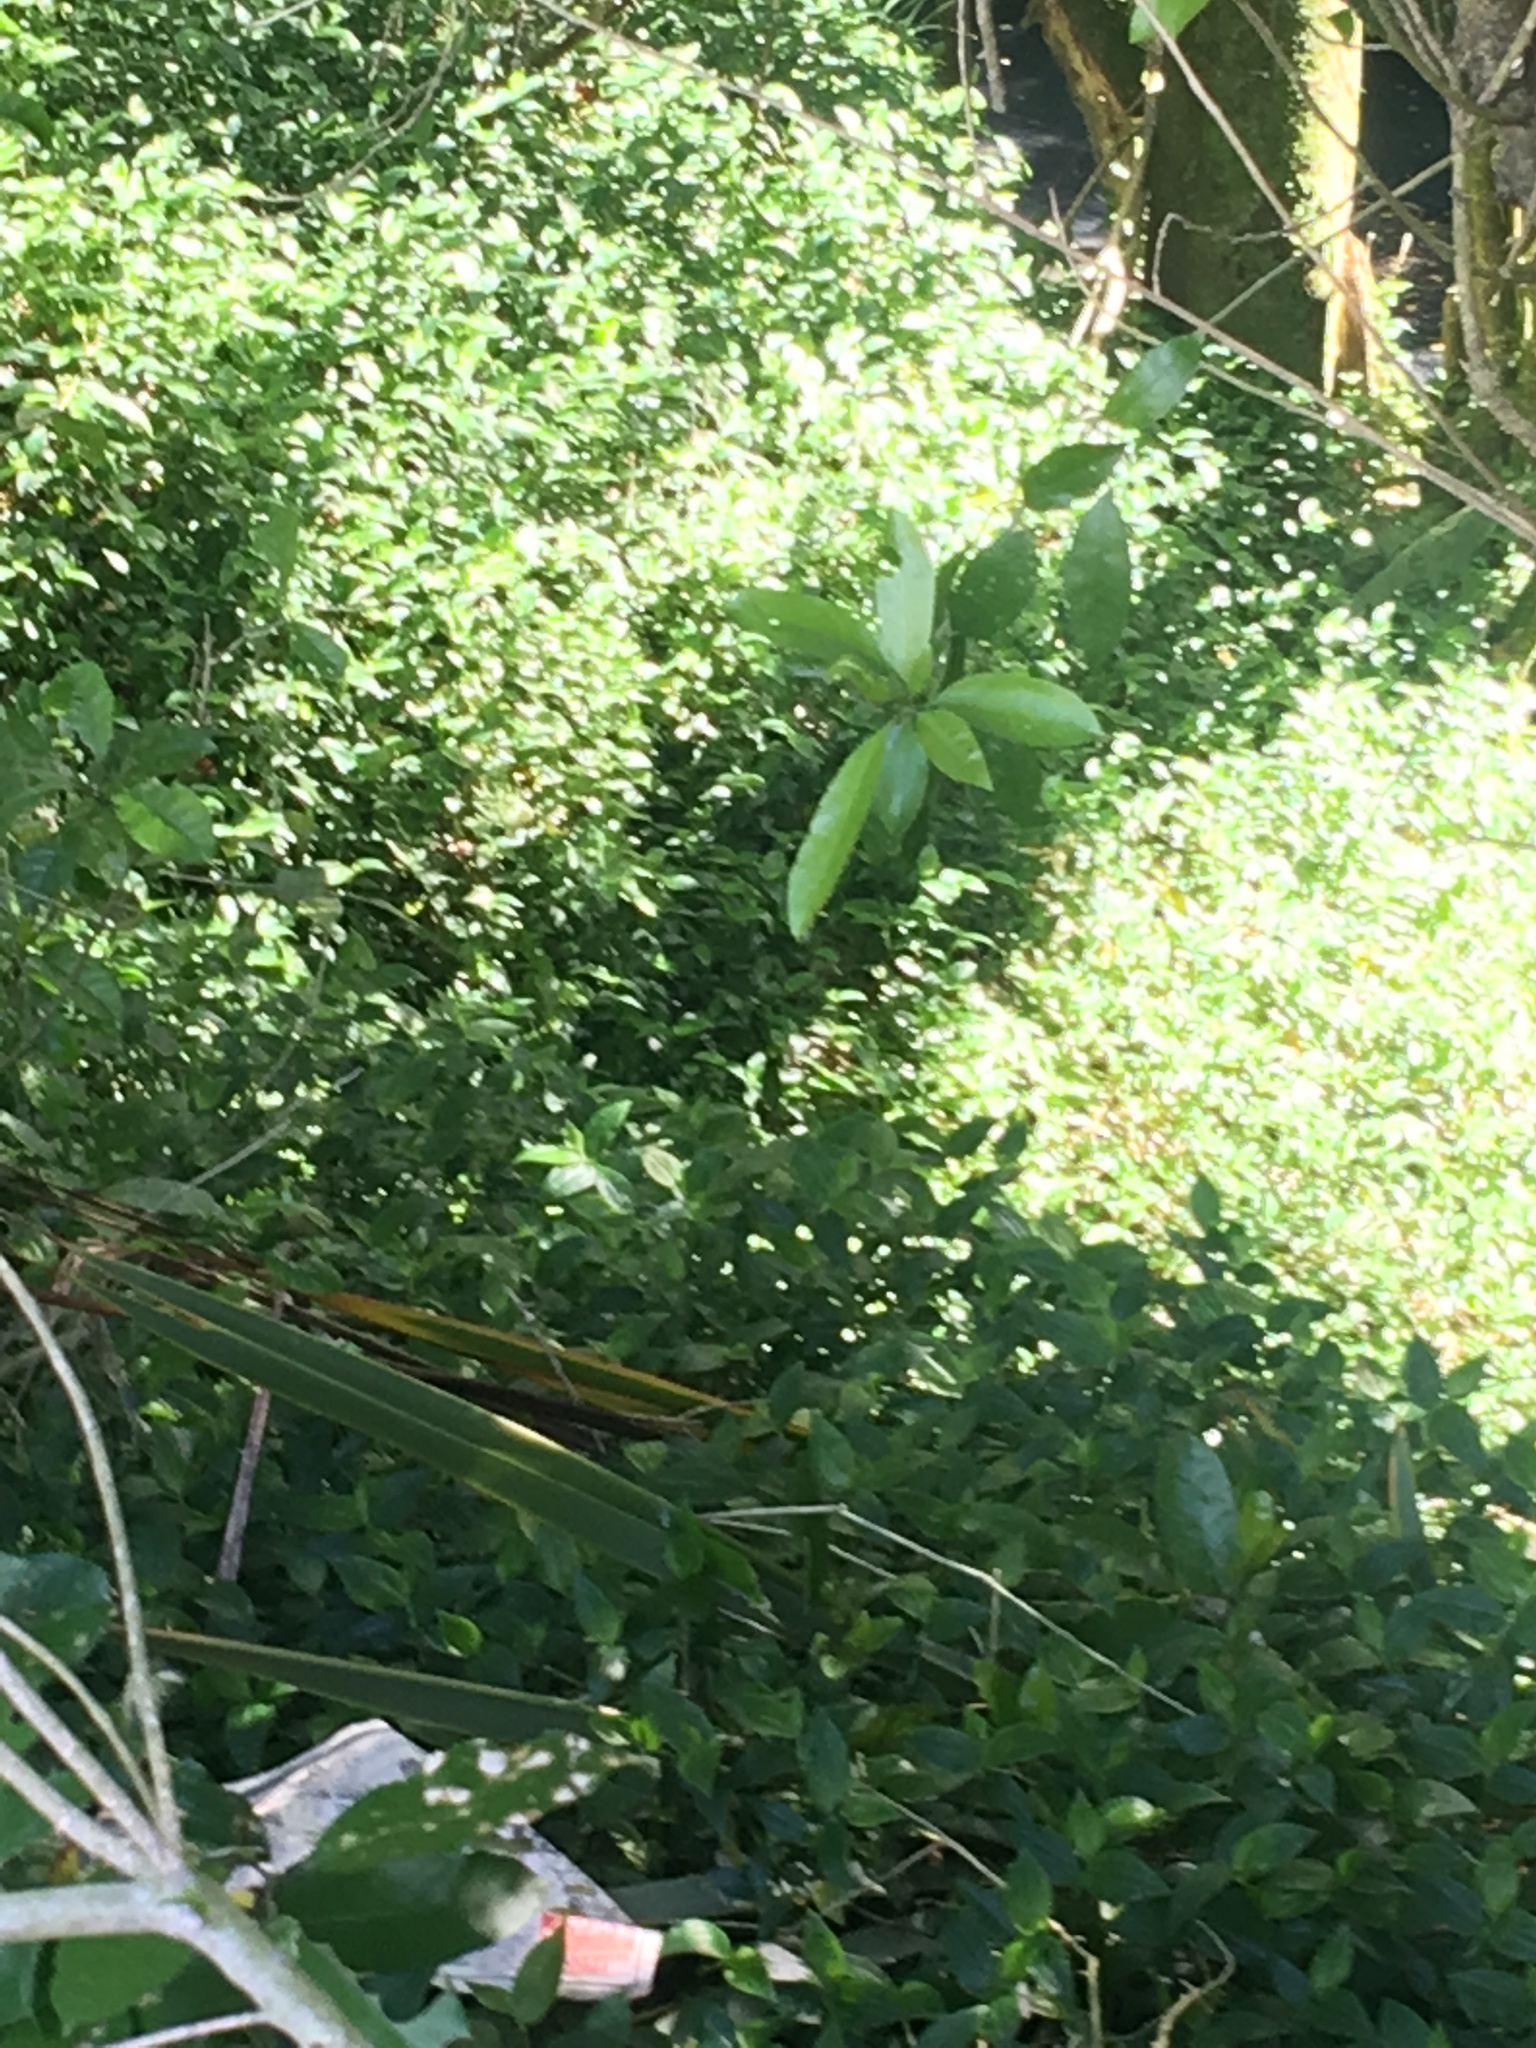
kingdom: Plantae
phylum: Tracheophyta
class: Liliopsida
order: Commelinales
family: Commelinaceae
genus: Tradescantia
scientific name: Tradescantia fluminensis
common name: Wandering-jew
